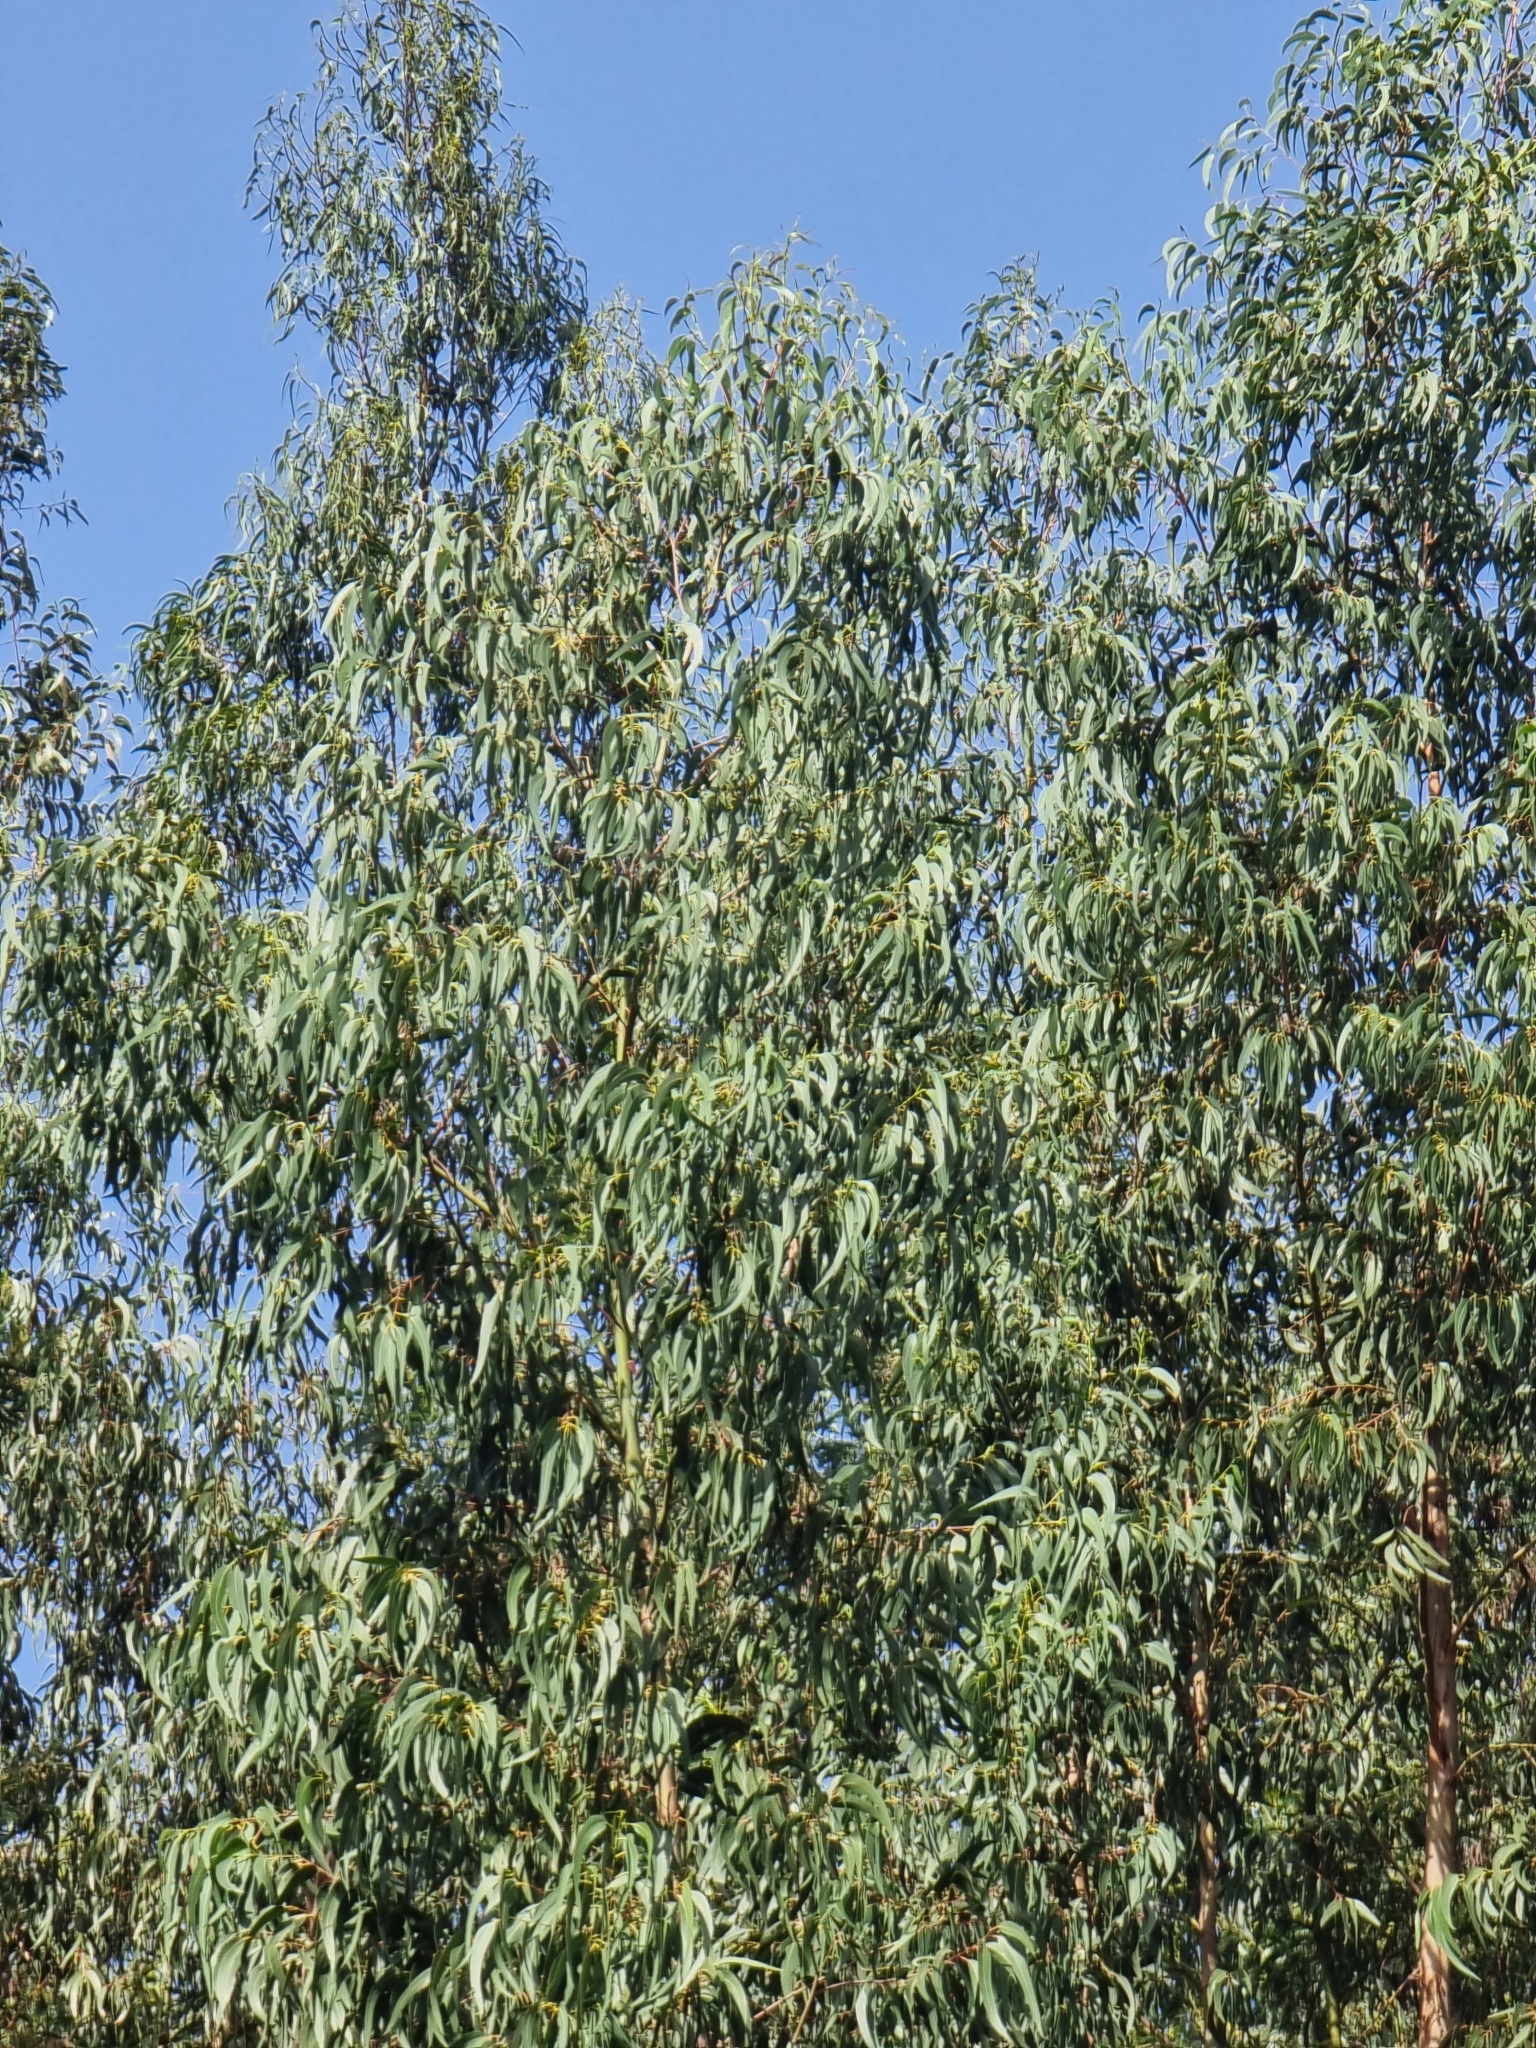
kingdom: Plantae
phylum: Tracheophyta
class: Magnoliopsida
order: Myrtales
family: Myrtaceae
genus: Eucalyptus
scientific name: Eucalyptus globulus
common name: Southern blue-gum
